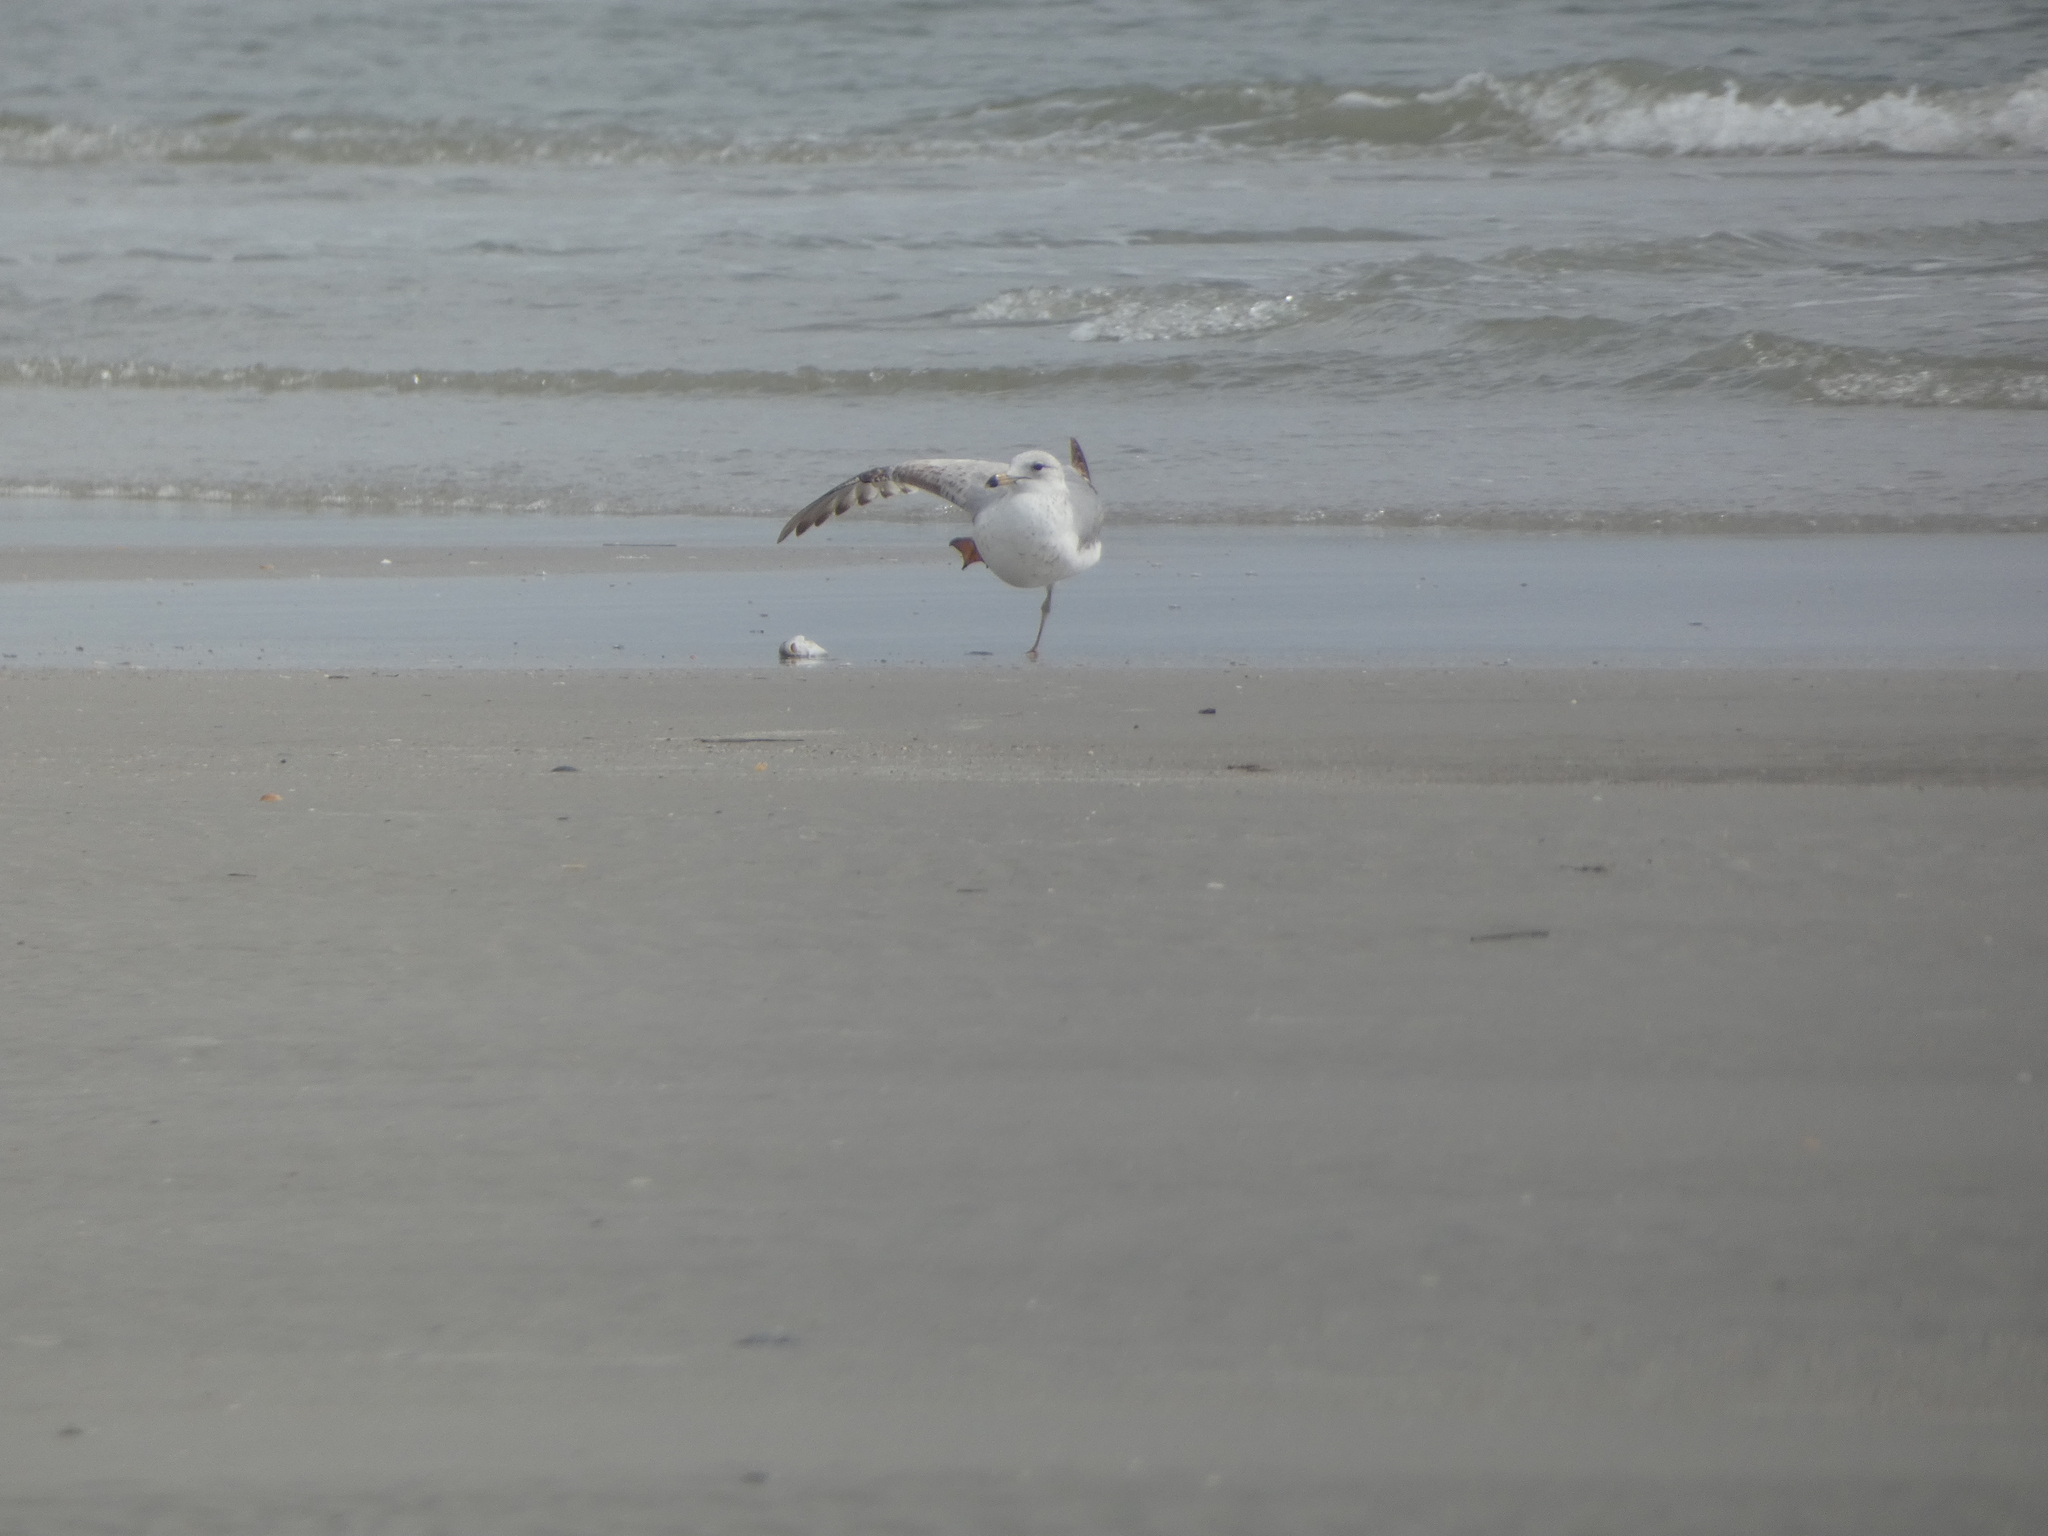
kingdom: Animalia
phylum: Chordata
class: Aves
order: Charadriiformes
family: Laridae
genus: Larus
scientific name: Larus delawarensis
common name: Ring-billed gull
